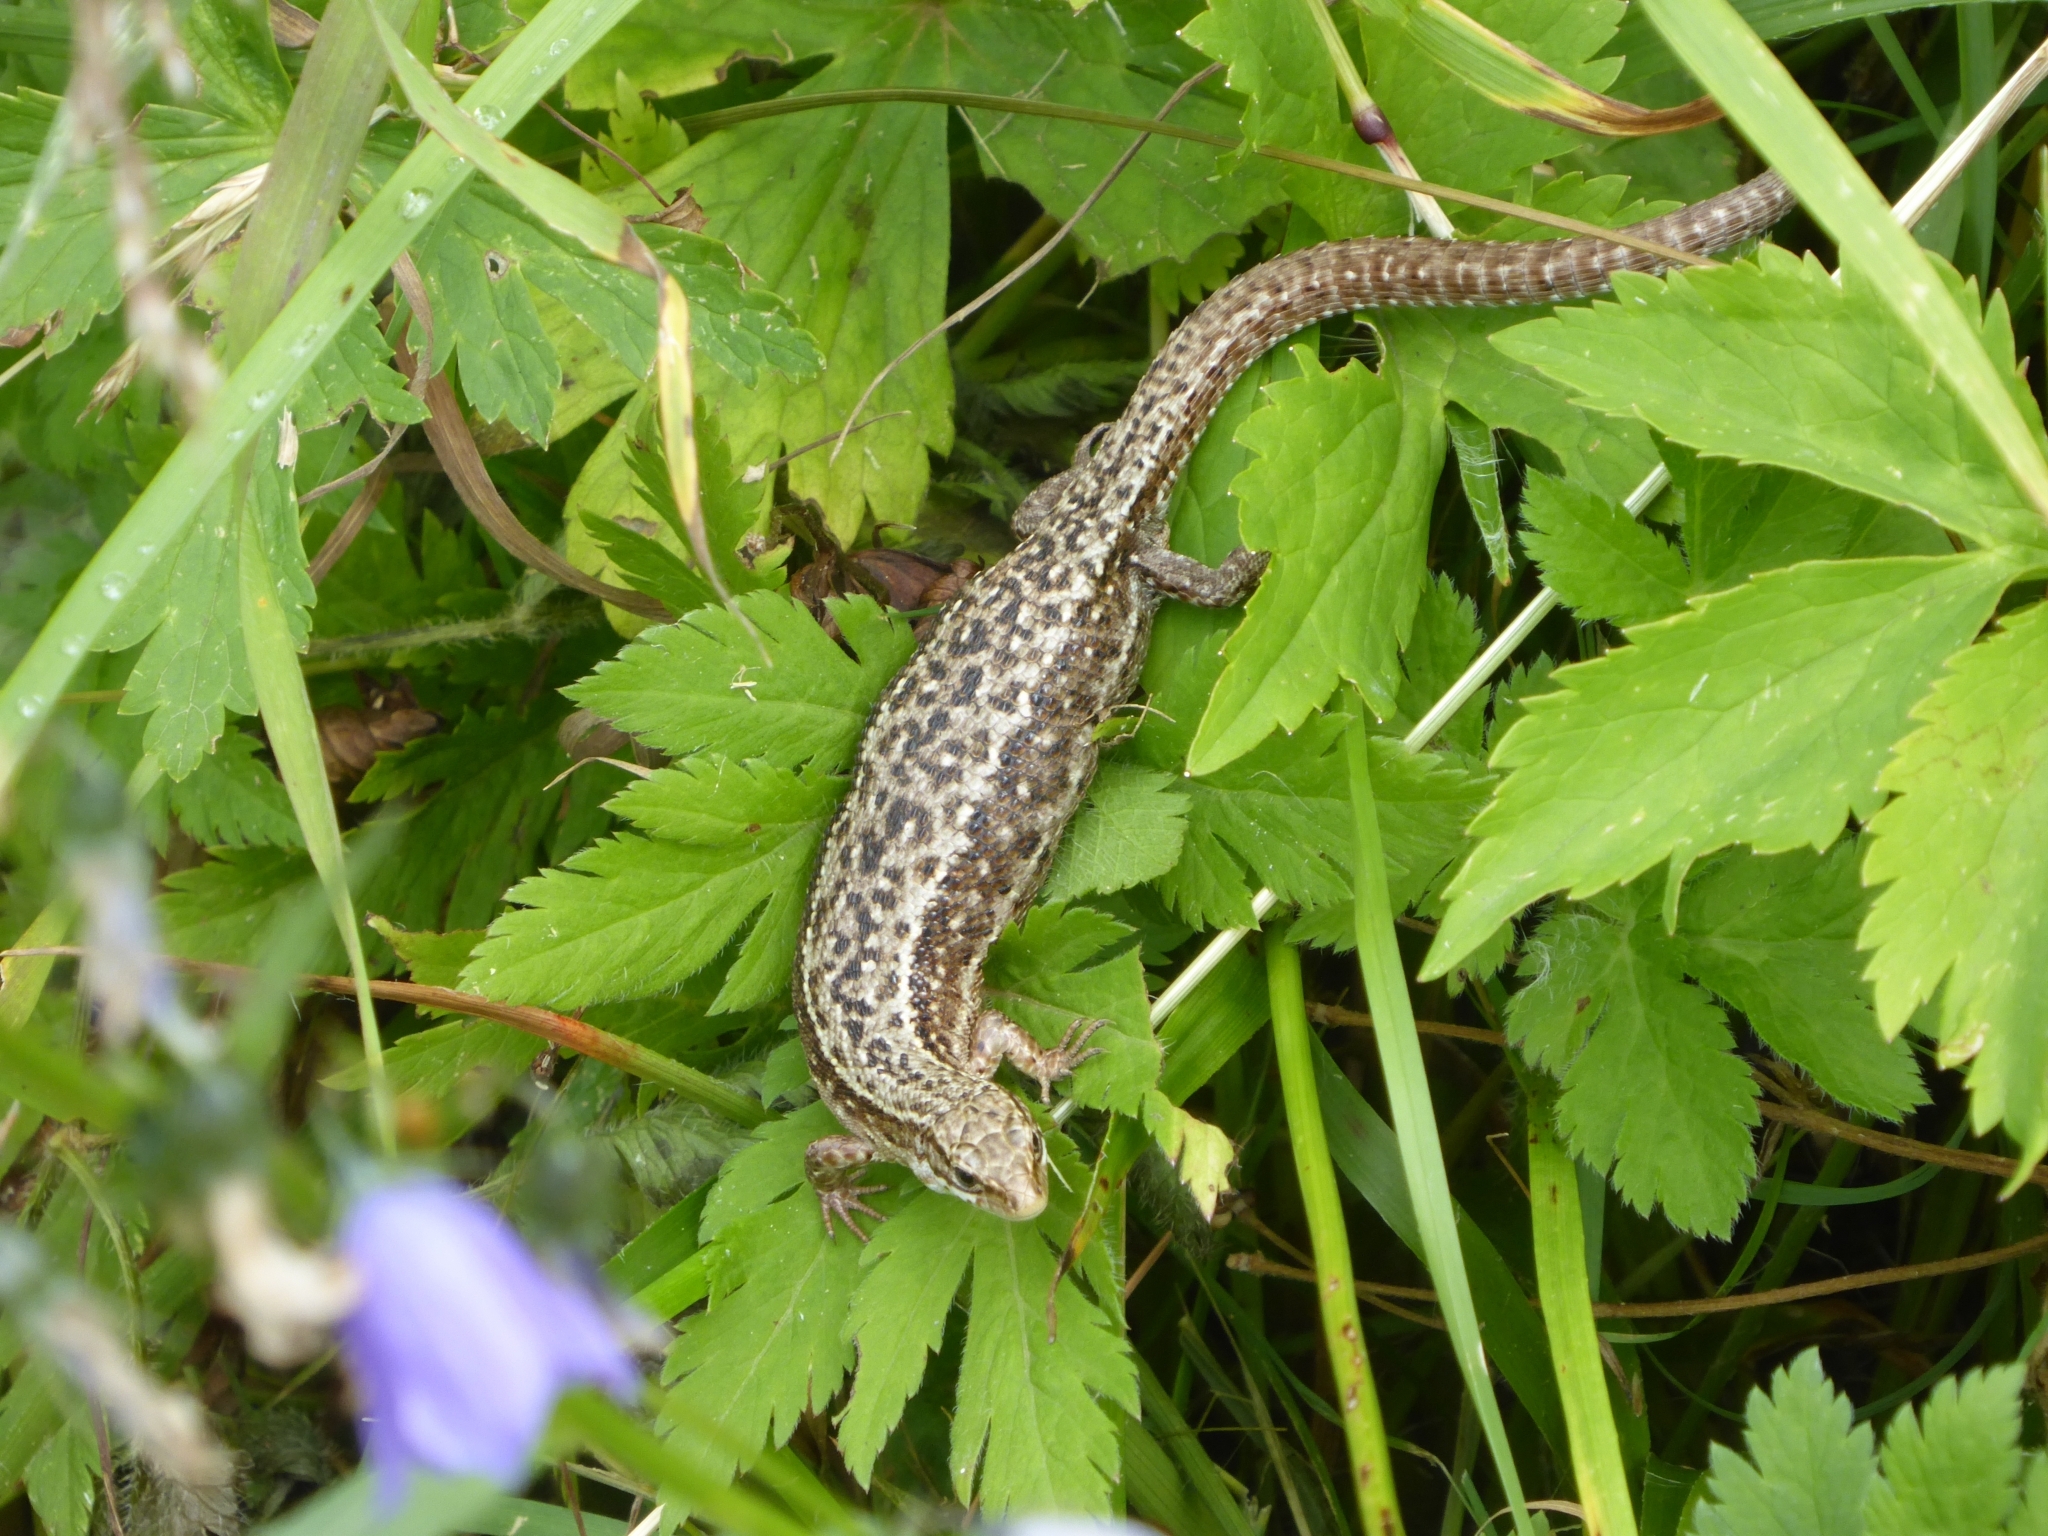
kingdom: Animalia
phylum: Chordata
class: Squamata
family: Lacertidae
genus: Zootoca
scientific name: Zootoca vivipara
